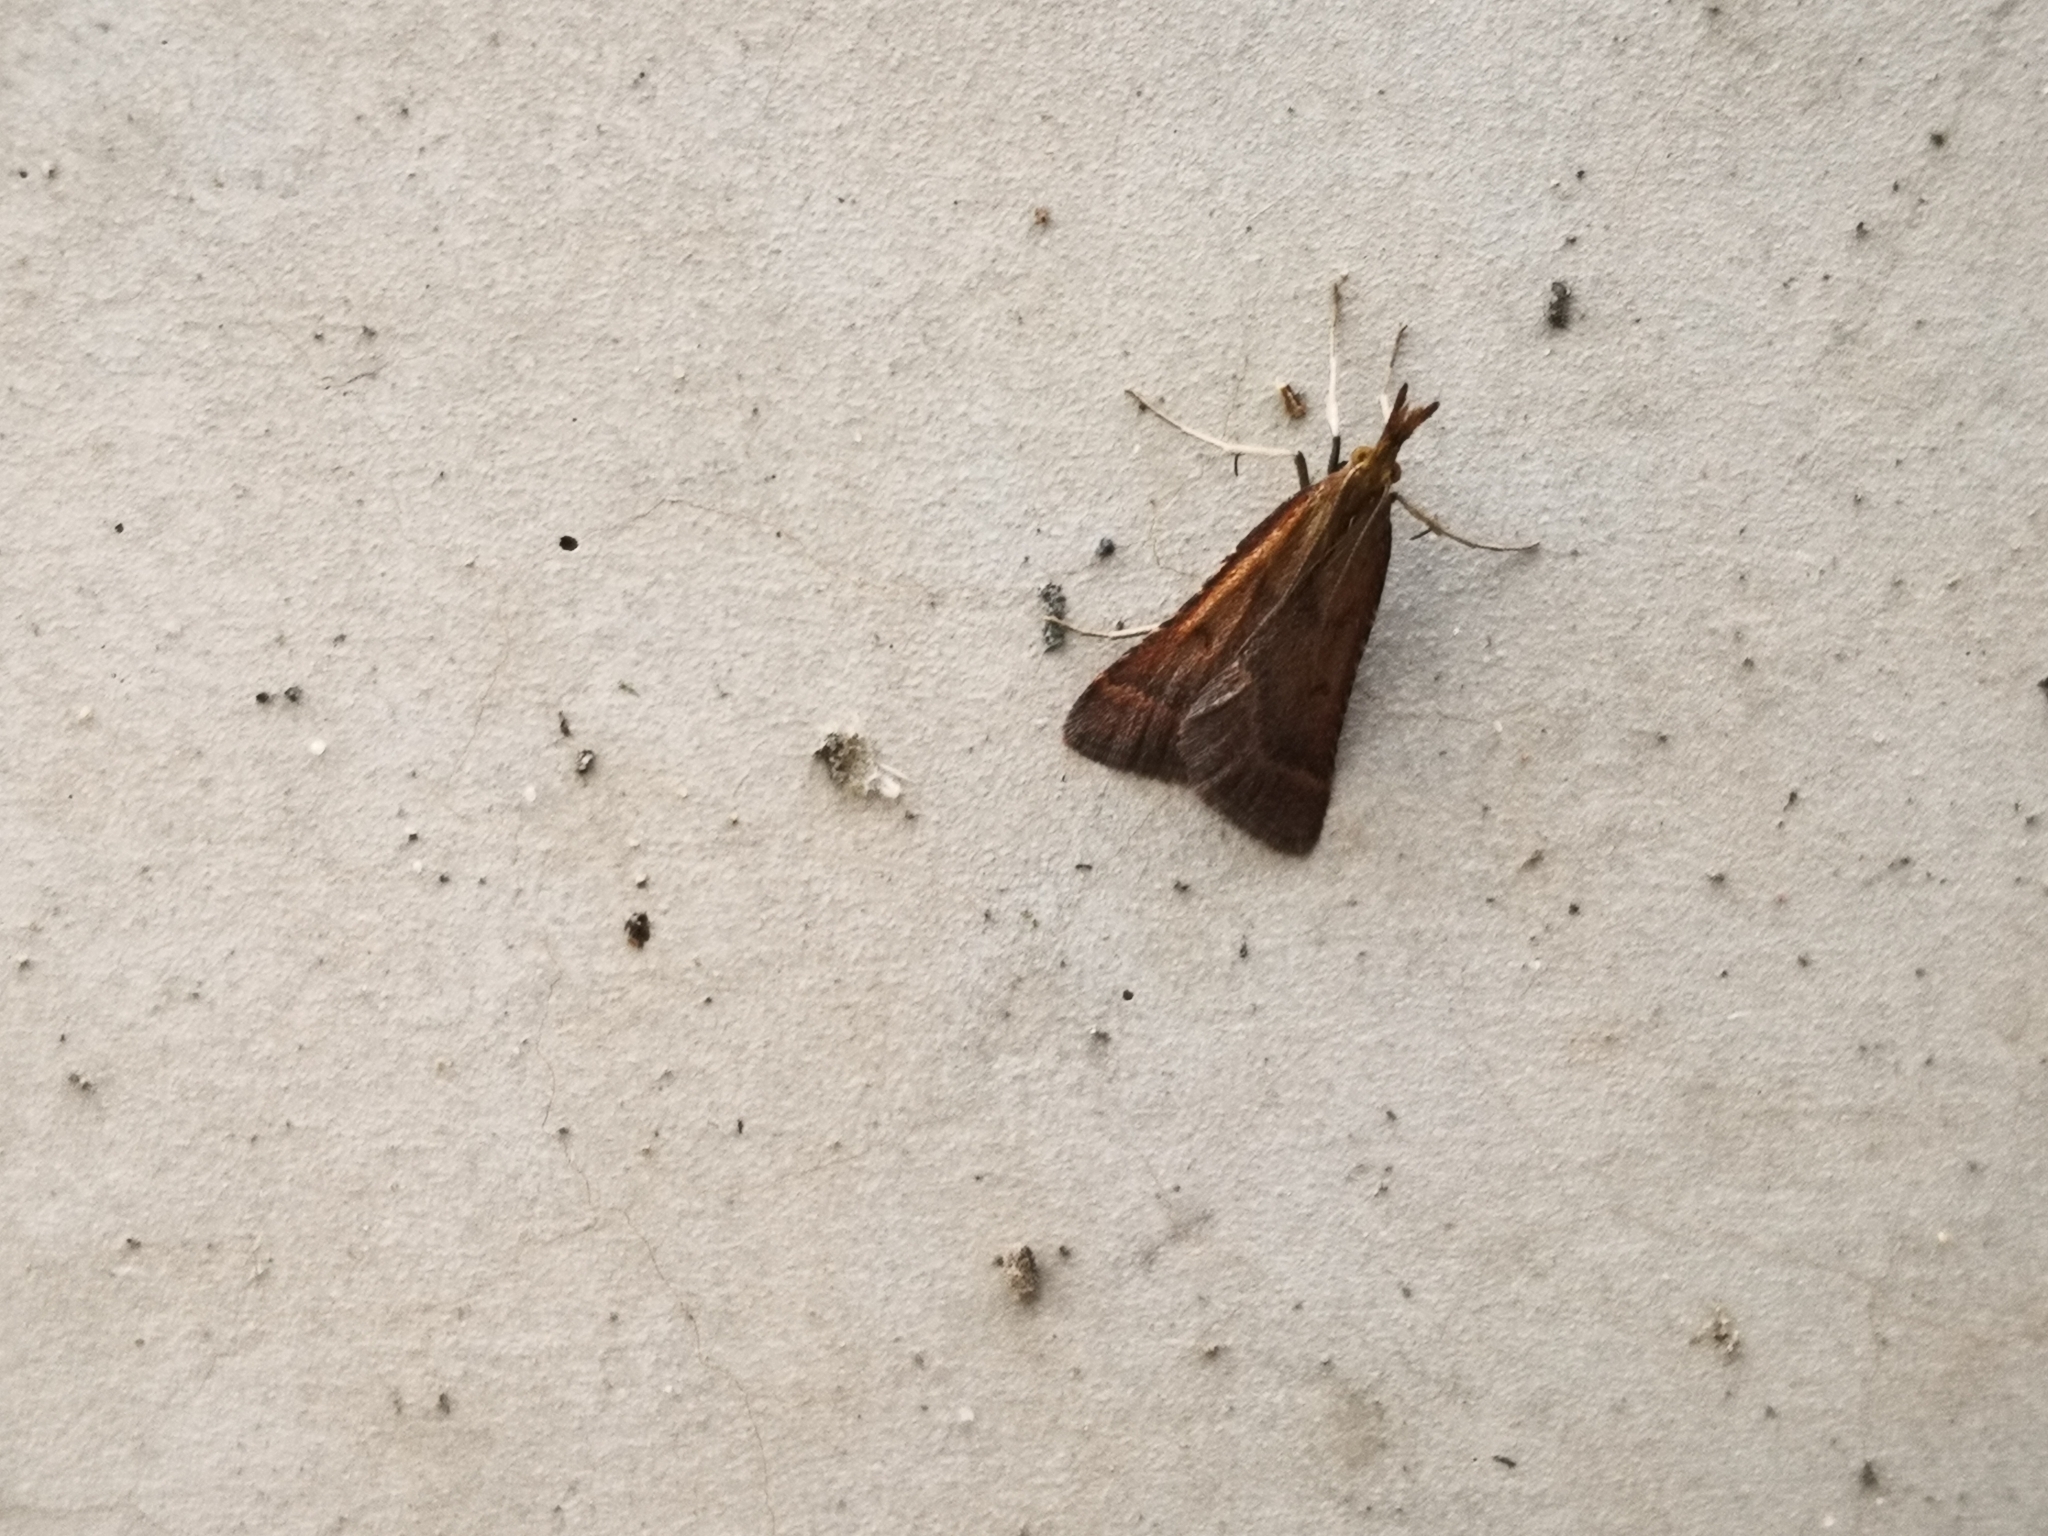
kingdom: Animalia
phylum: Arthropoda
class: Insecta
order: Lepidoptera
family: Pyralidae
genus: Synaphe
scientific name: Synaphe punctalis
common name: Long-legged tabby
